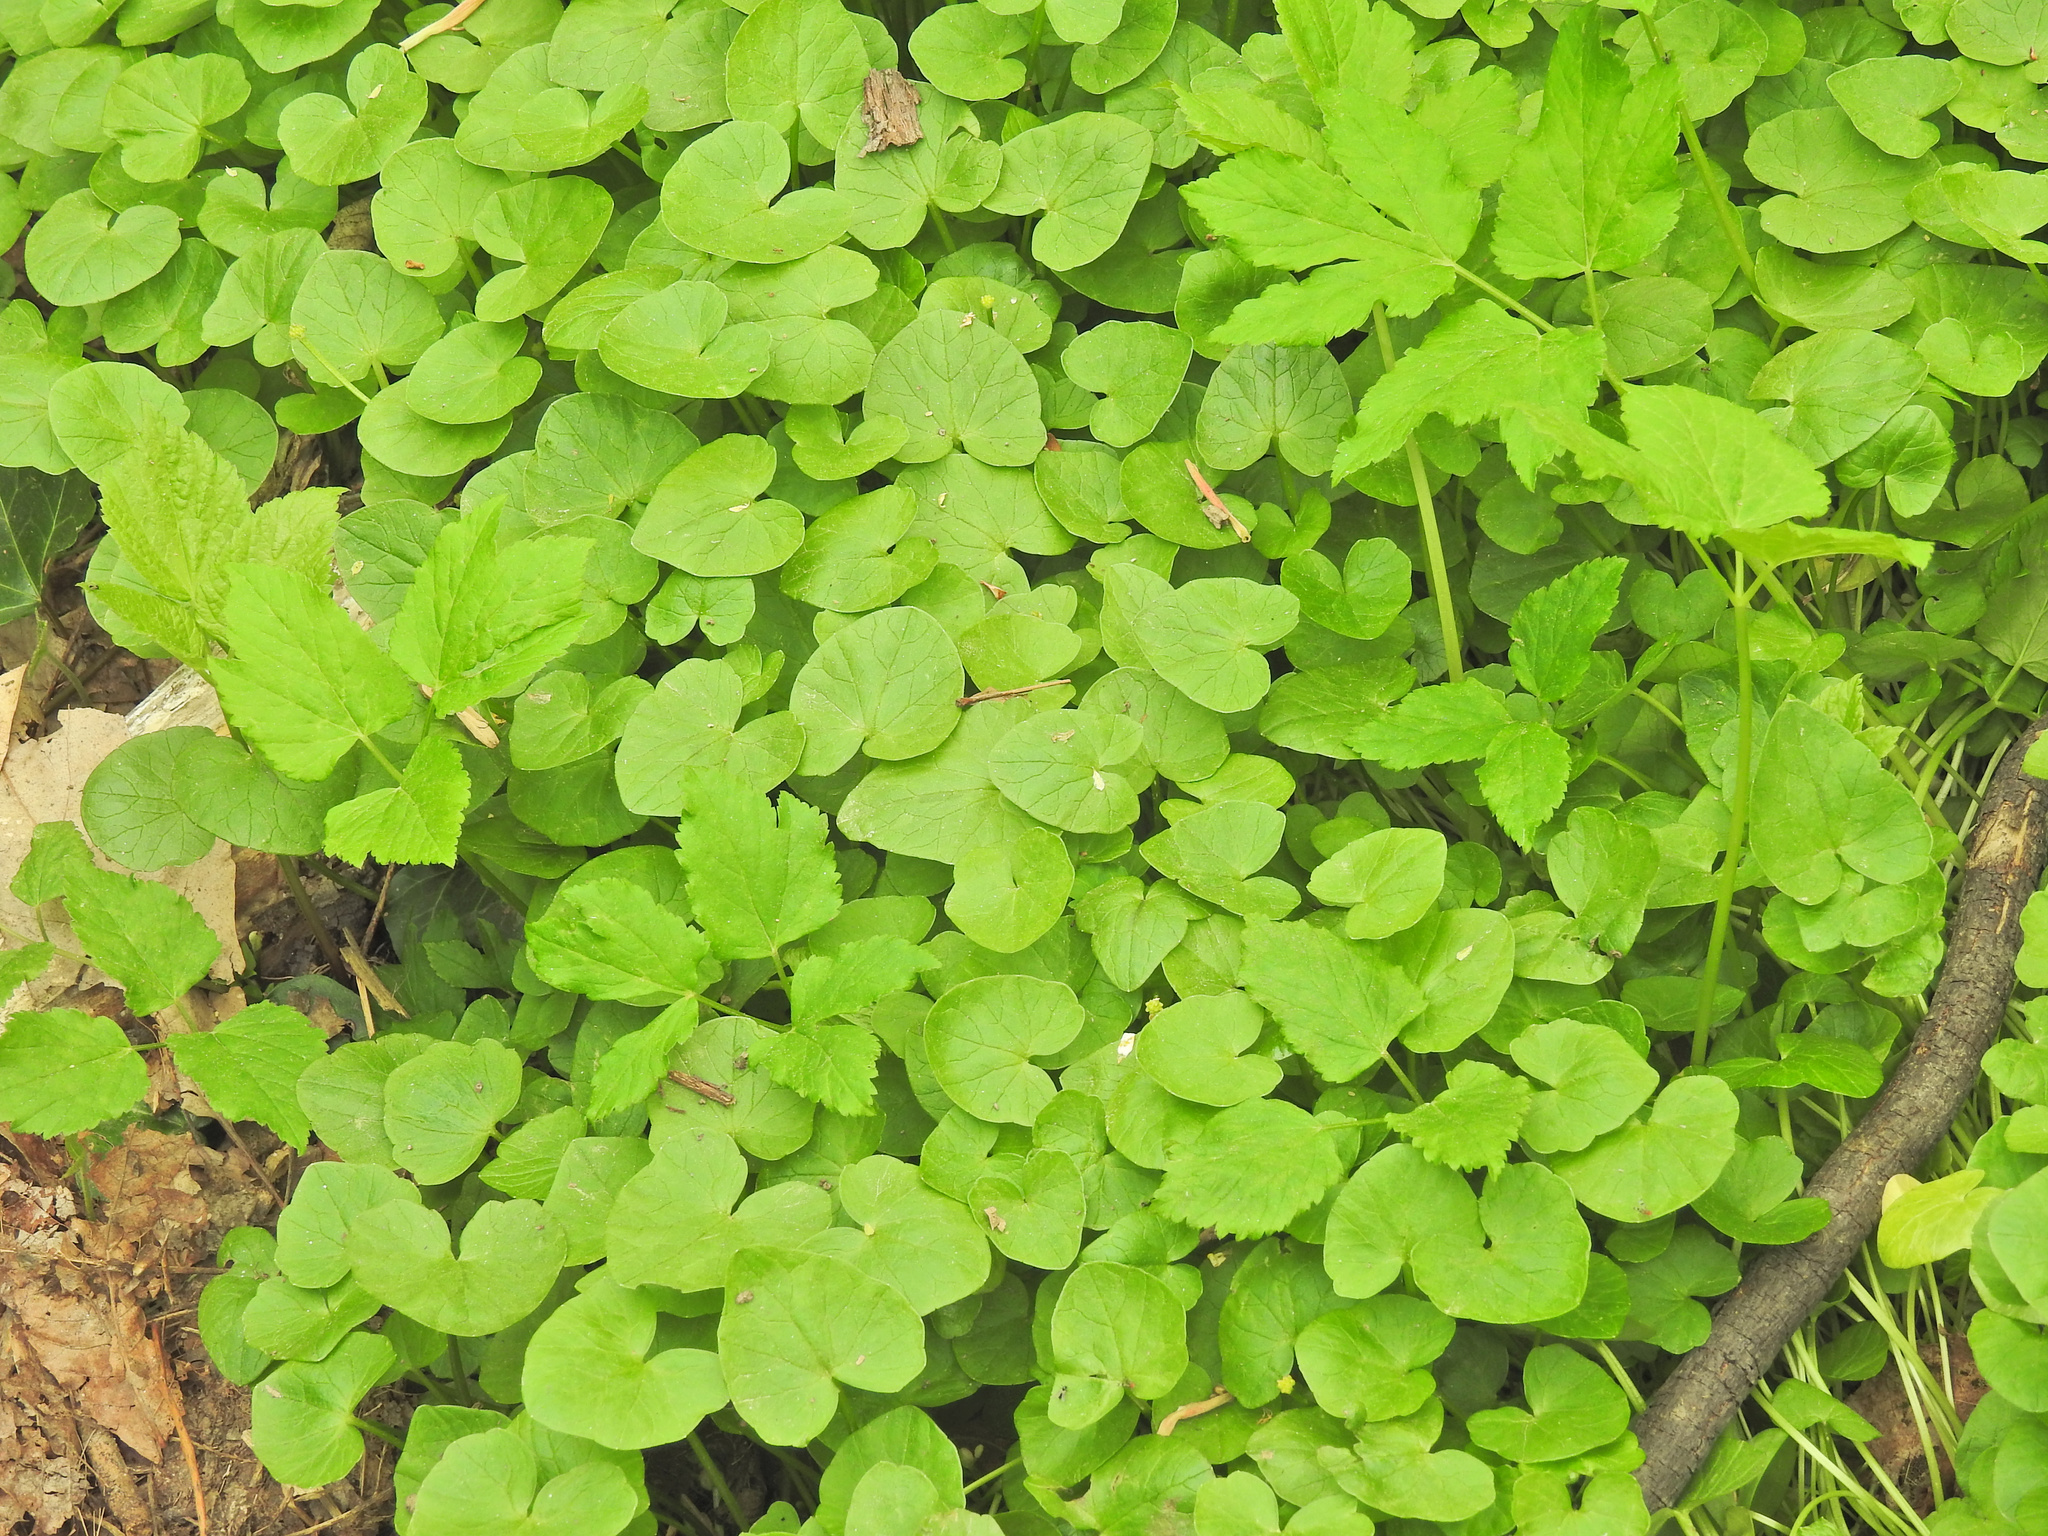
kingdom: Plantae
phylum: Tracheophyta
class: Magnoliopsida
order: Ranunculales
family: Ranunculaceae
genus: Ficaria
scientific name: Ficaria verna
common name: Lesser celandine
